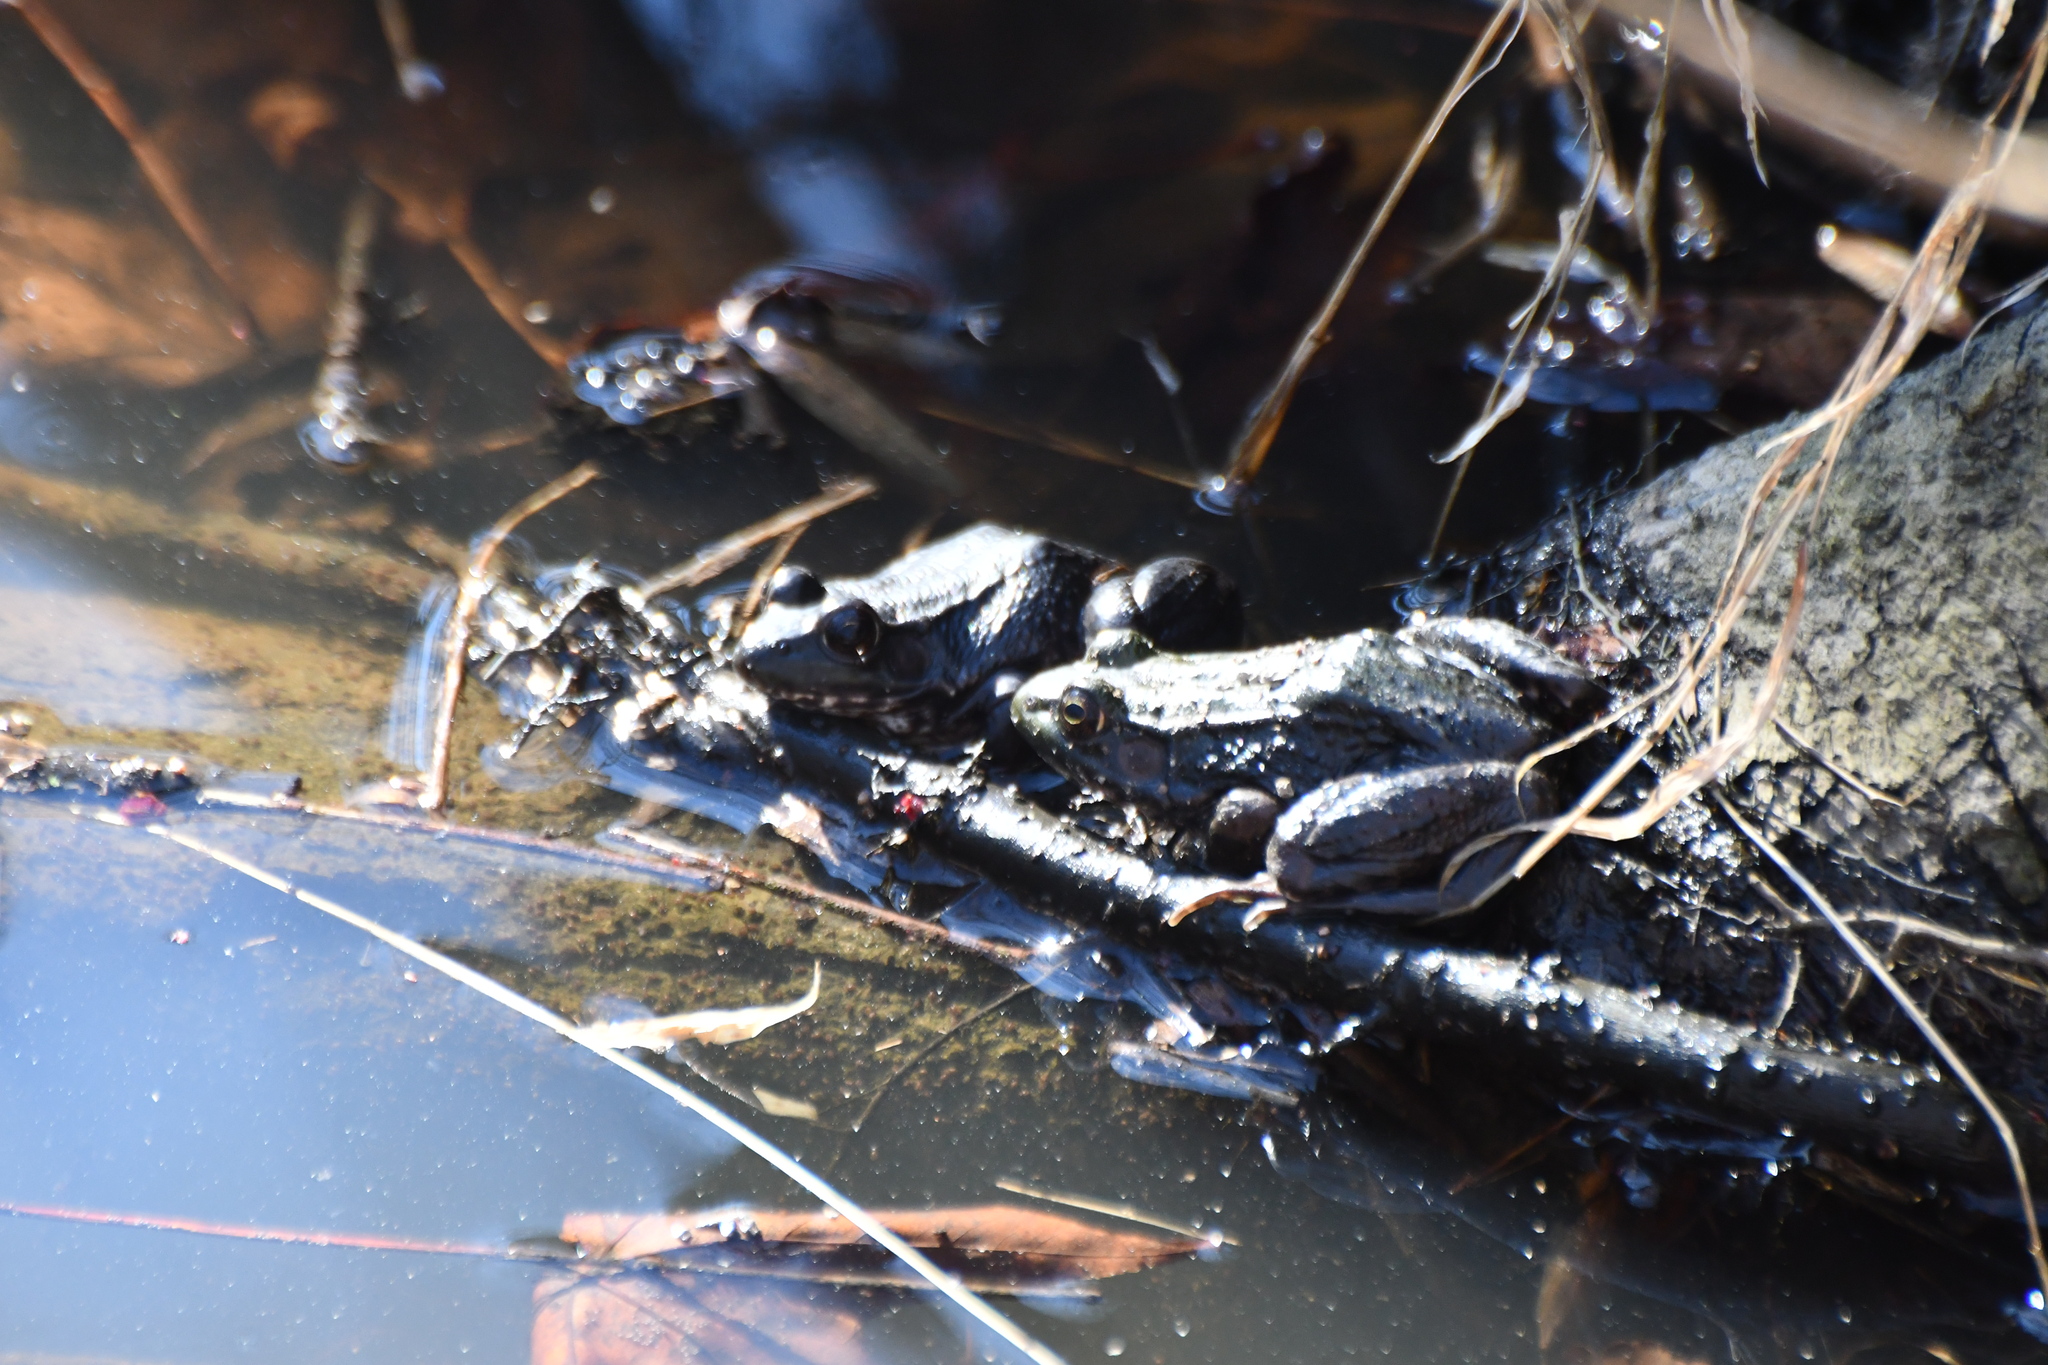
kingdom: Animalia
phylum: Chordata
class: Amphibia
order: Anura
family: Ranidae
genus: Lithobates
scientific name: Lithobates clamitans
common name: Green frog
